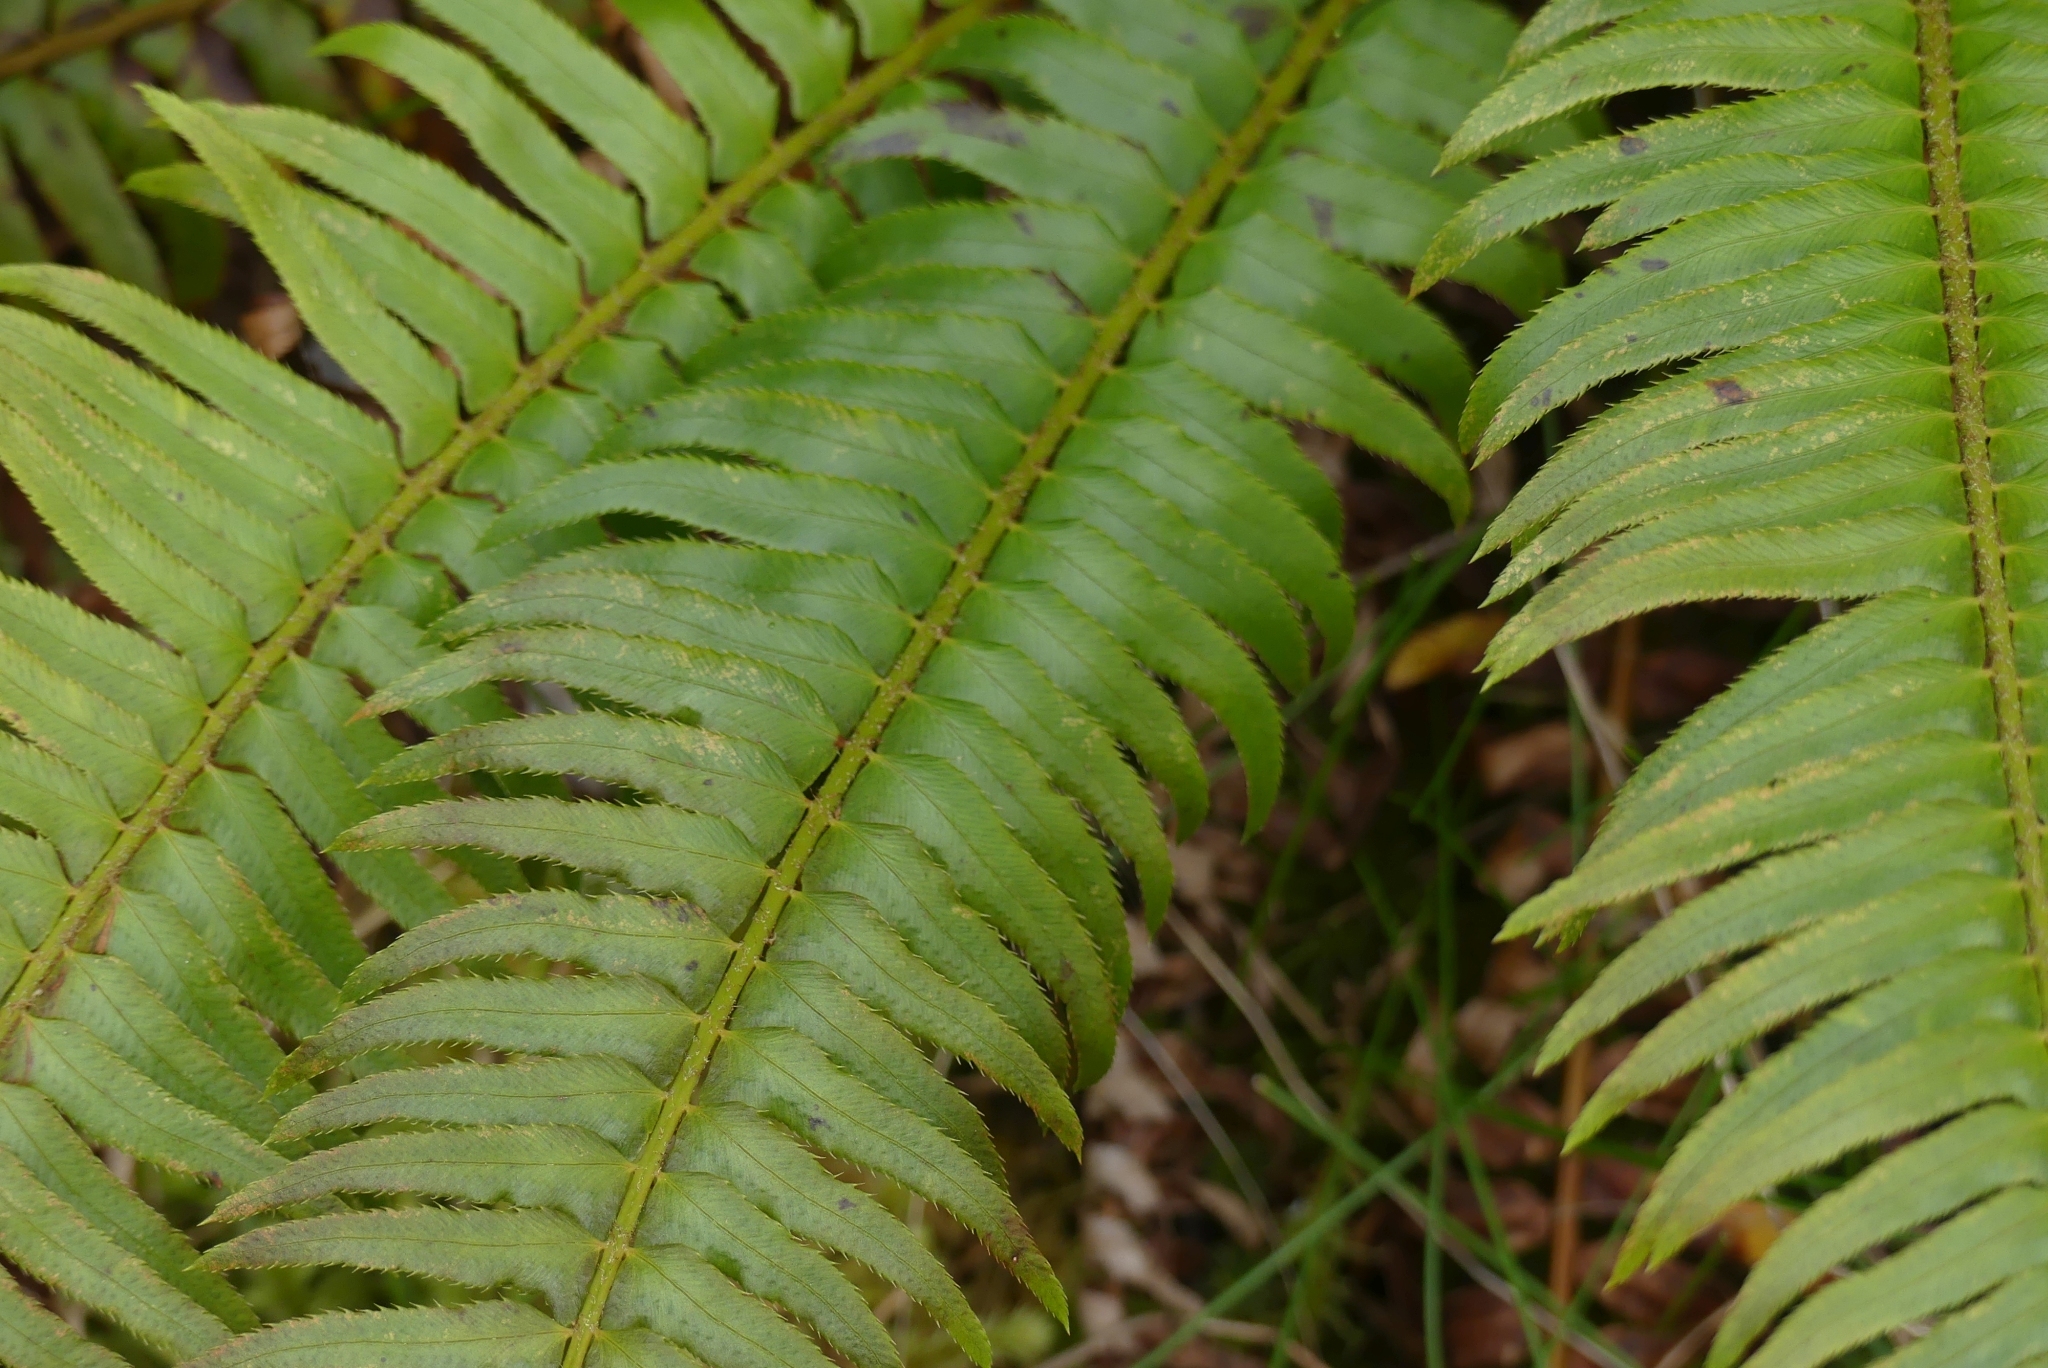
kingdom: Plantae
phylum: Tracheophyta
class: Polypodiopsida
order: Polypodiales
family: Dryopteridaceae
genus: Polystichum
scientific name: Polystichum munitum
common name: Western sword-fern
